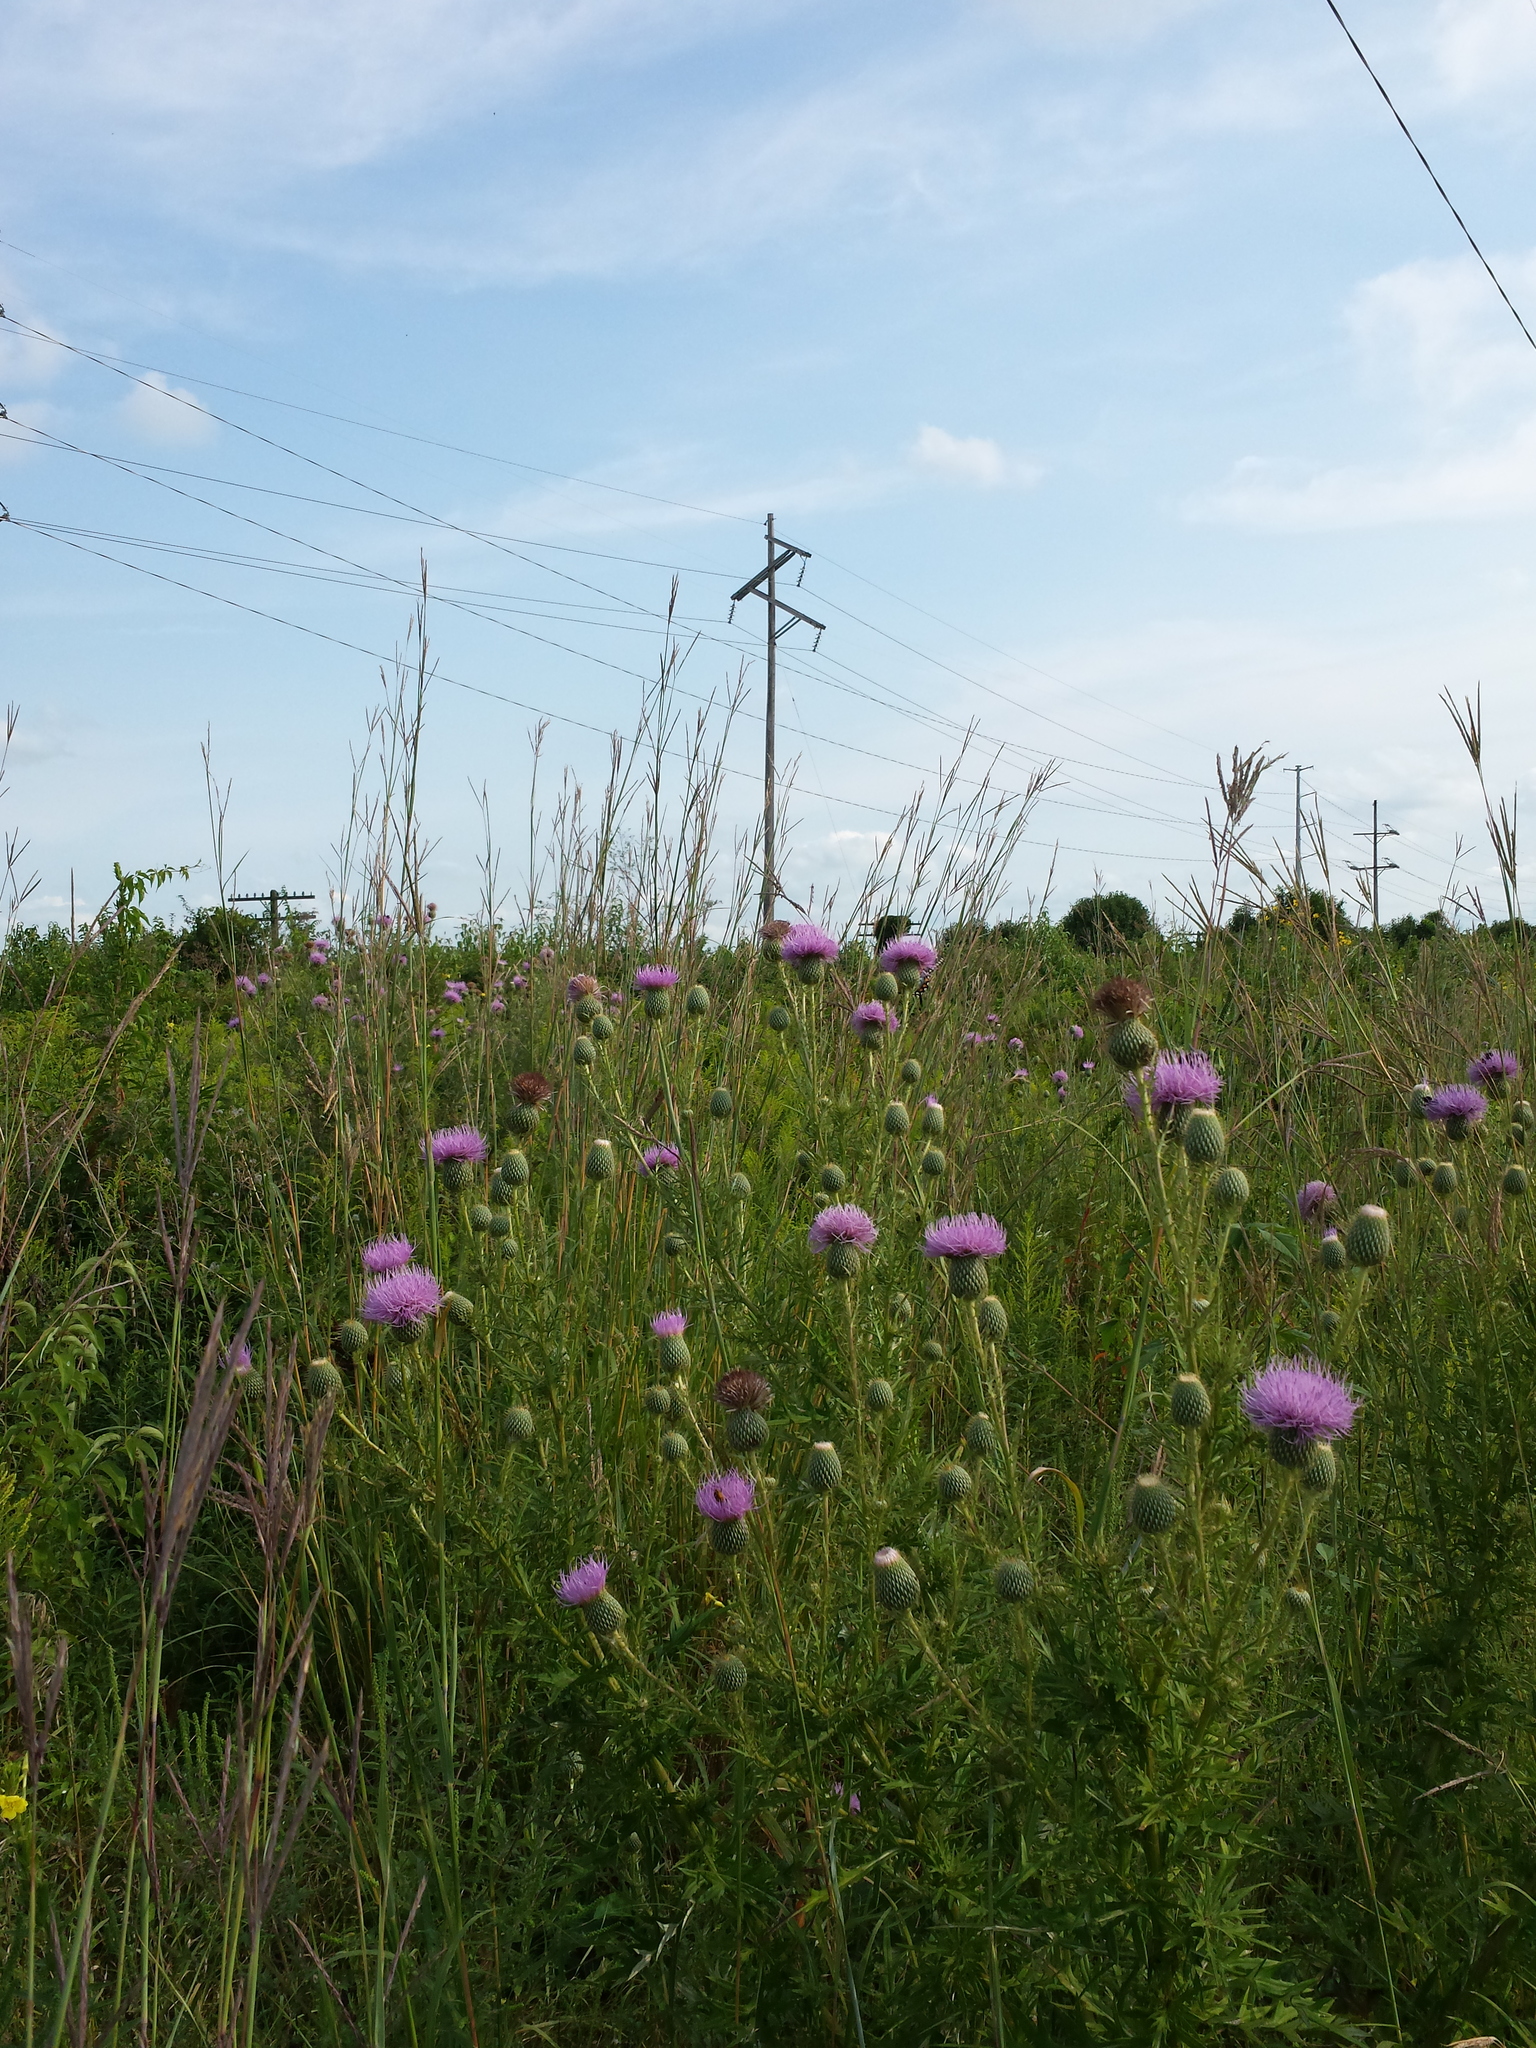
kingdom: Plantae
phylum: Tracheophyta
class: Magnoliopsida
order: Asterales
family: Asteraceae
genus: Cirsium
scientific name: Cirsium discolor
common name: Field thistle
